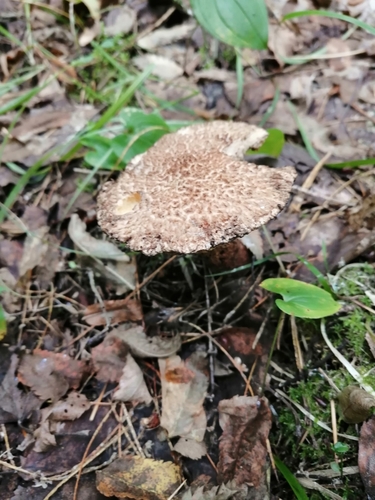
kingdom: Fungi
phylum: Basidiomycota
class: Agaricomycetes
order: Boletales
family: Suillaceae
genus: Suillus
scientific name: Suillus spraguei
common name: Painted suillus
